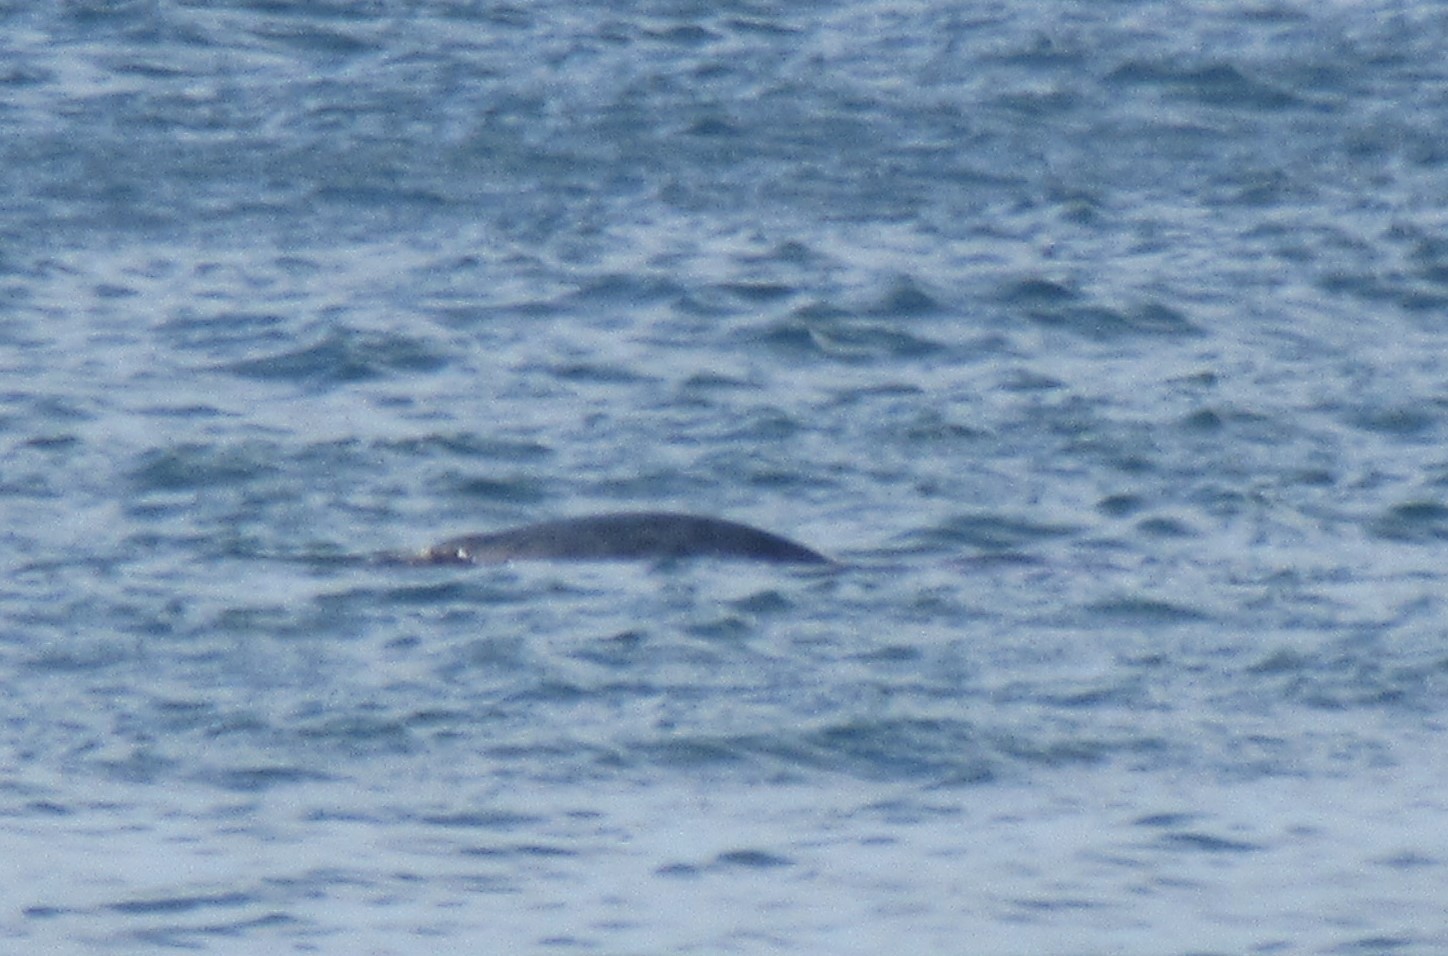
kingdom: Animalia
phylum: Chordata
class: Mammalia
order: Carnivora
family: Phocidae
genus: Halichoerus
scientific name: Halichoerus grypus
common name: Grey seal
